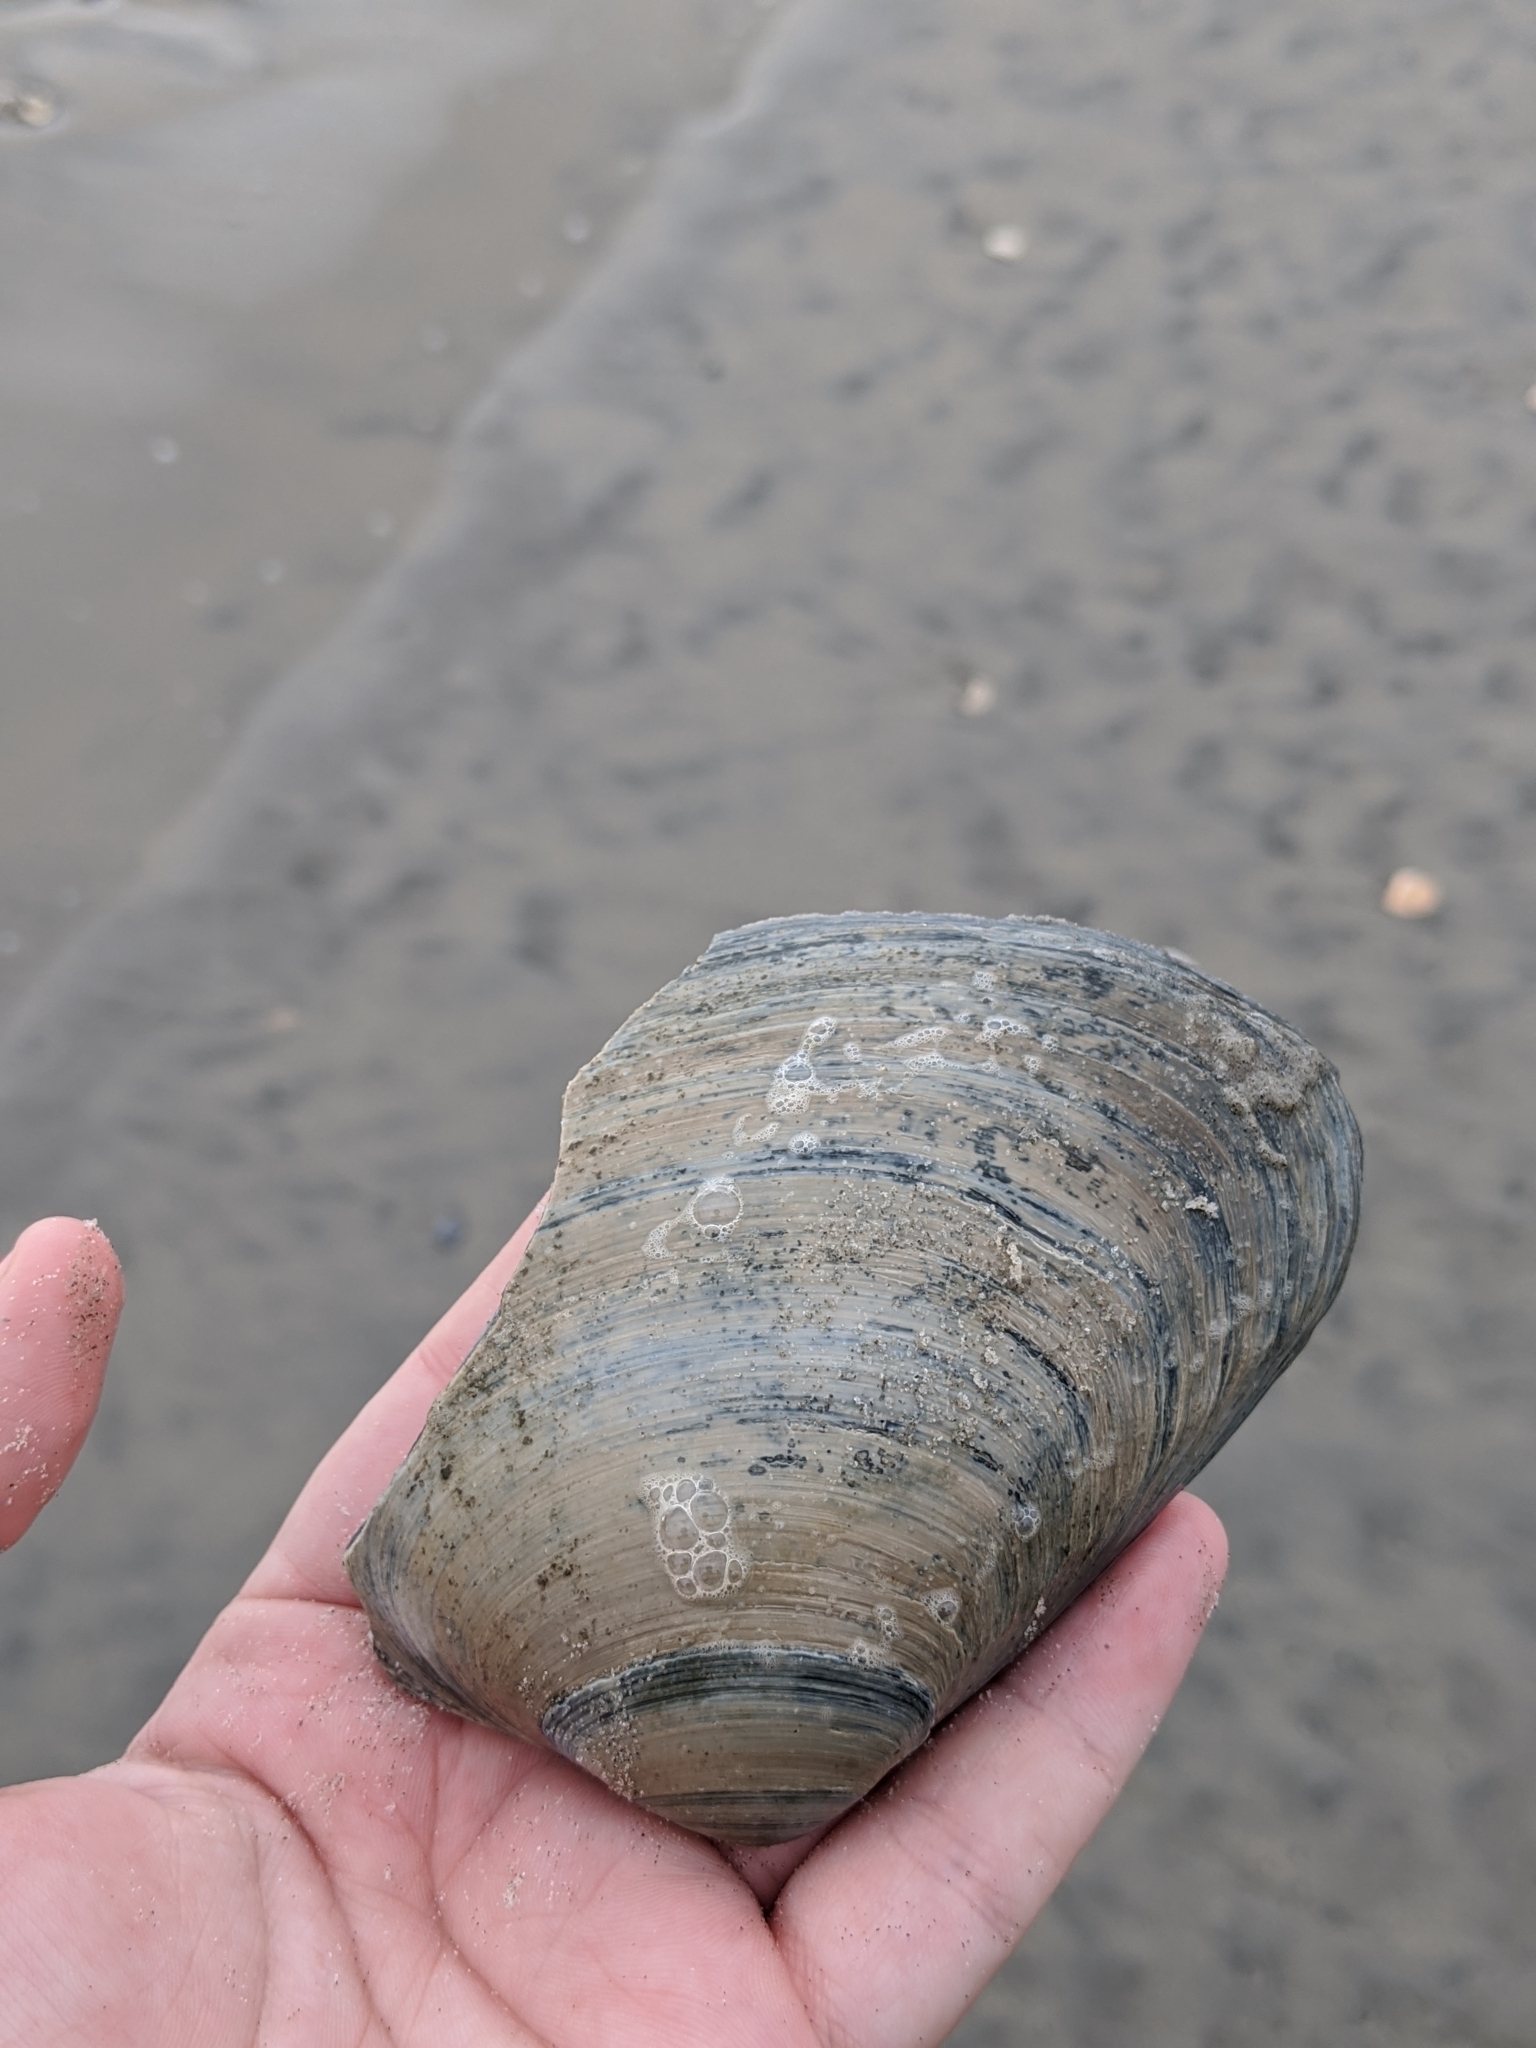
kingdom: Animalia
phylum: Mollusca
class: Bivalvia
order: Venerida
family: Mactridae
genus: Spisula
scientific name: Spisula solidissima
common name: Atlantic surf clam
